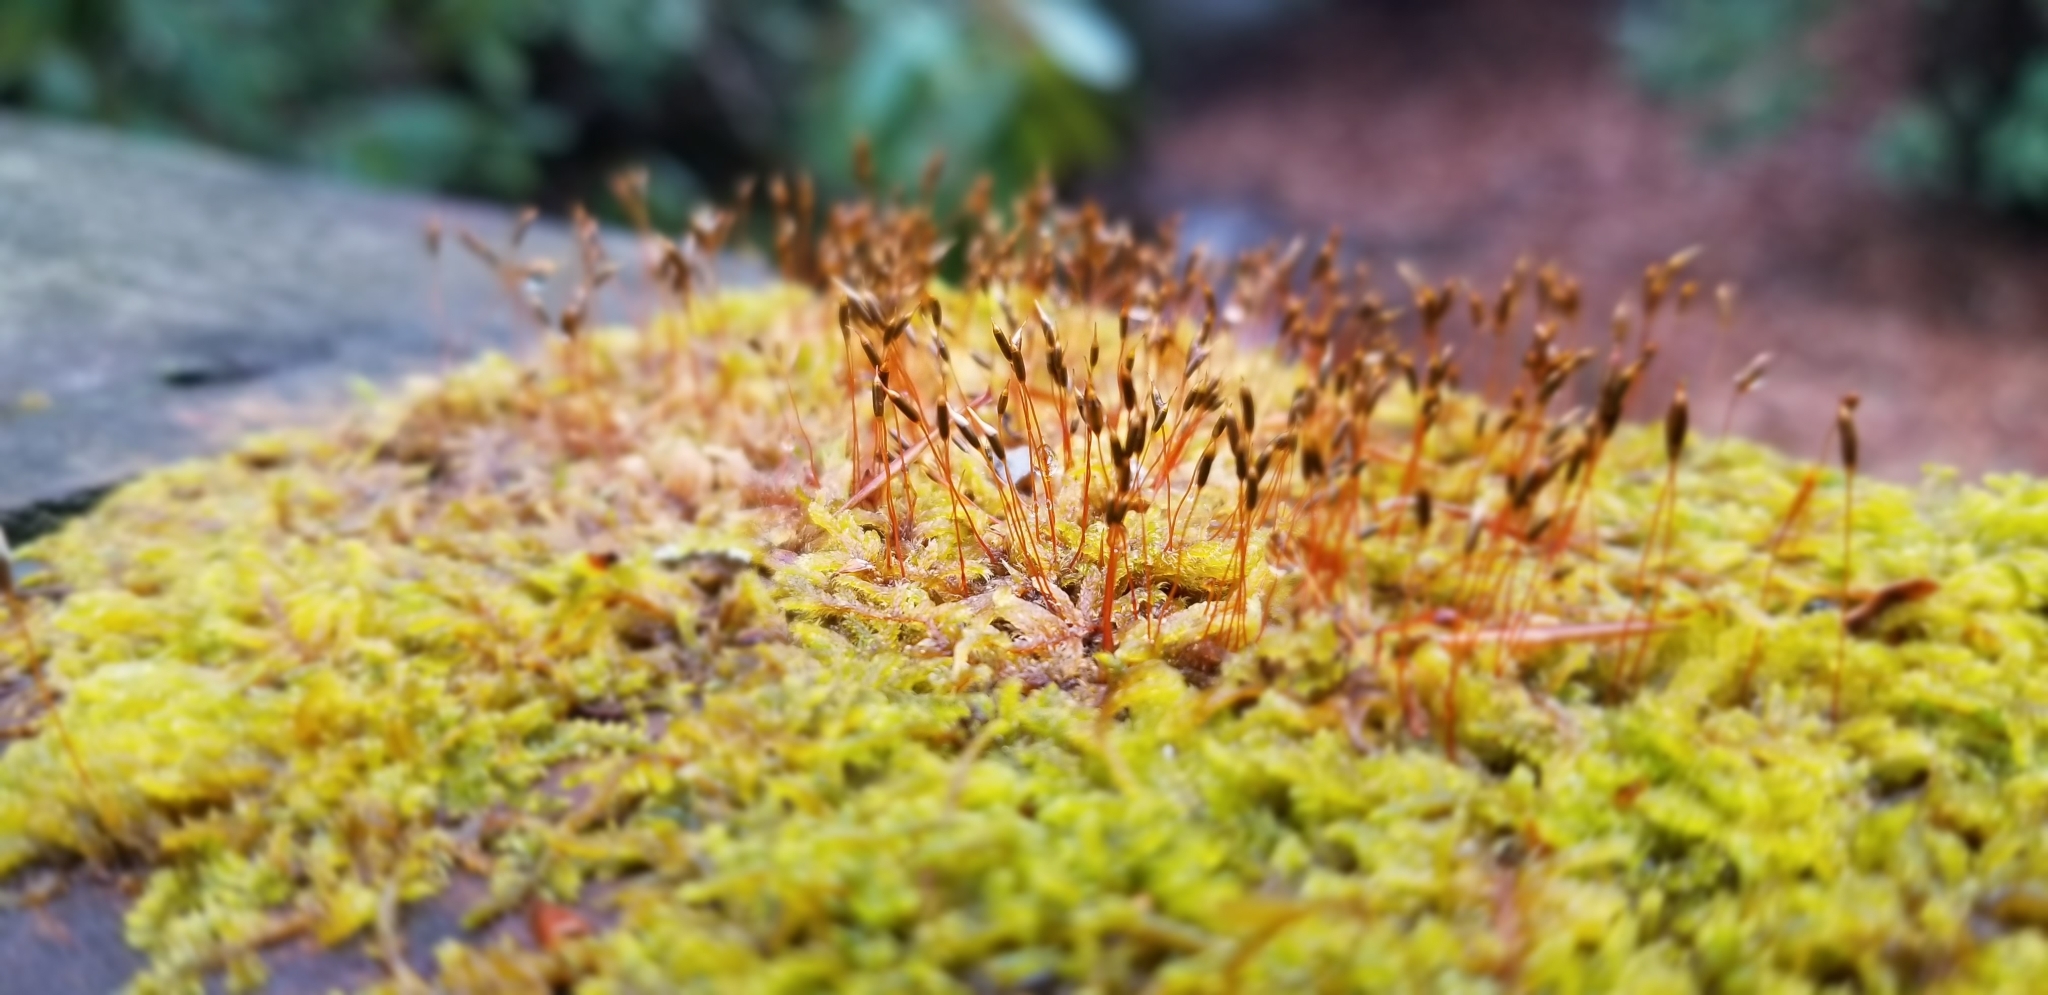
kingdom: Plantae
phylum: Bryophyta
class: Bryopsida
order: Hypnales
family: Entodontaceae
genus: Entodon
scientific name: Entodon seductrix
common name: Round-stemmed entodon moss
